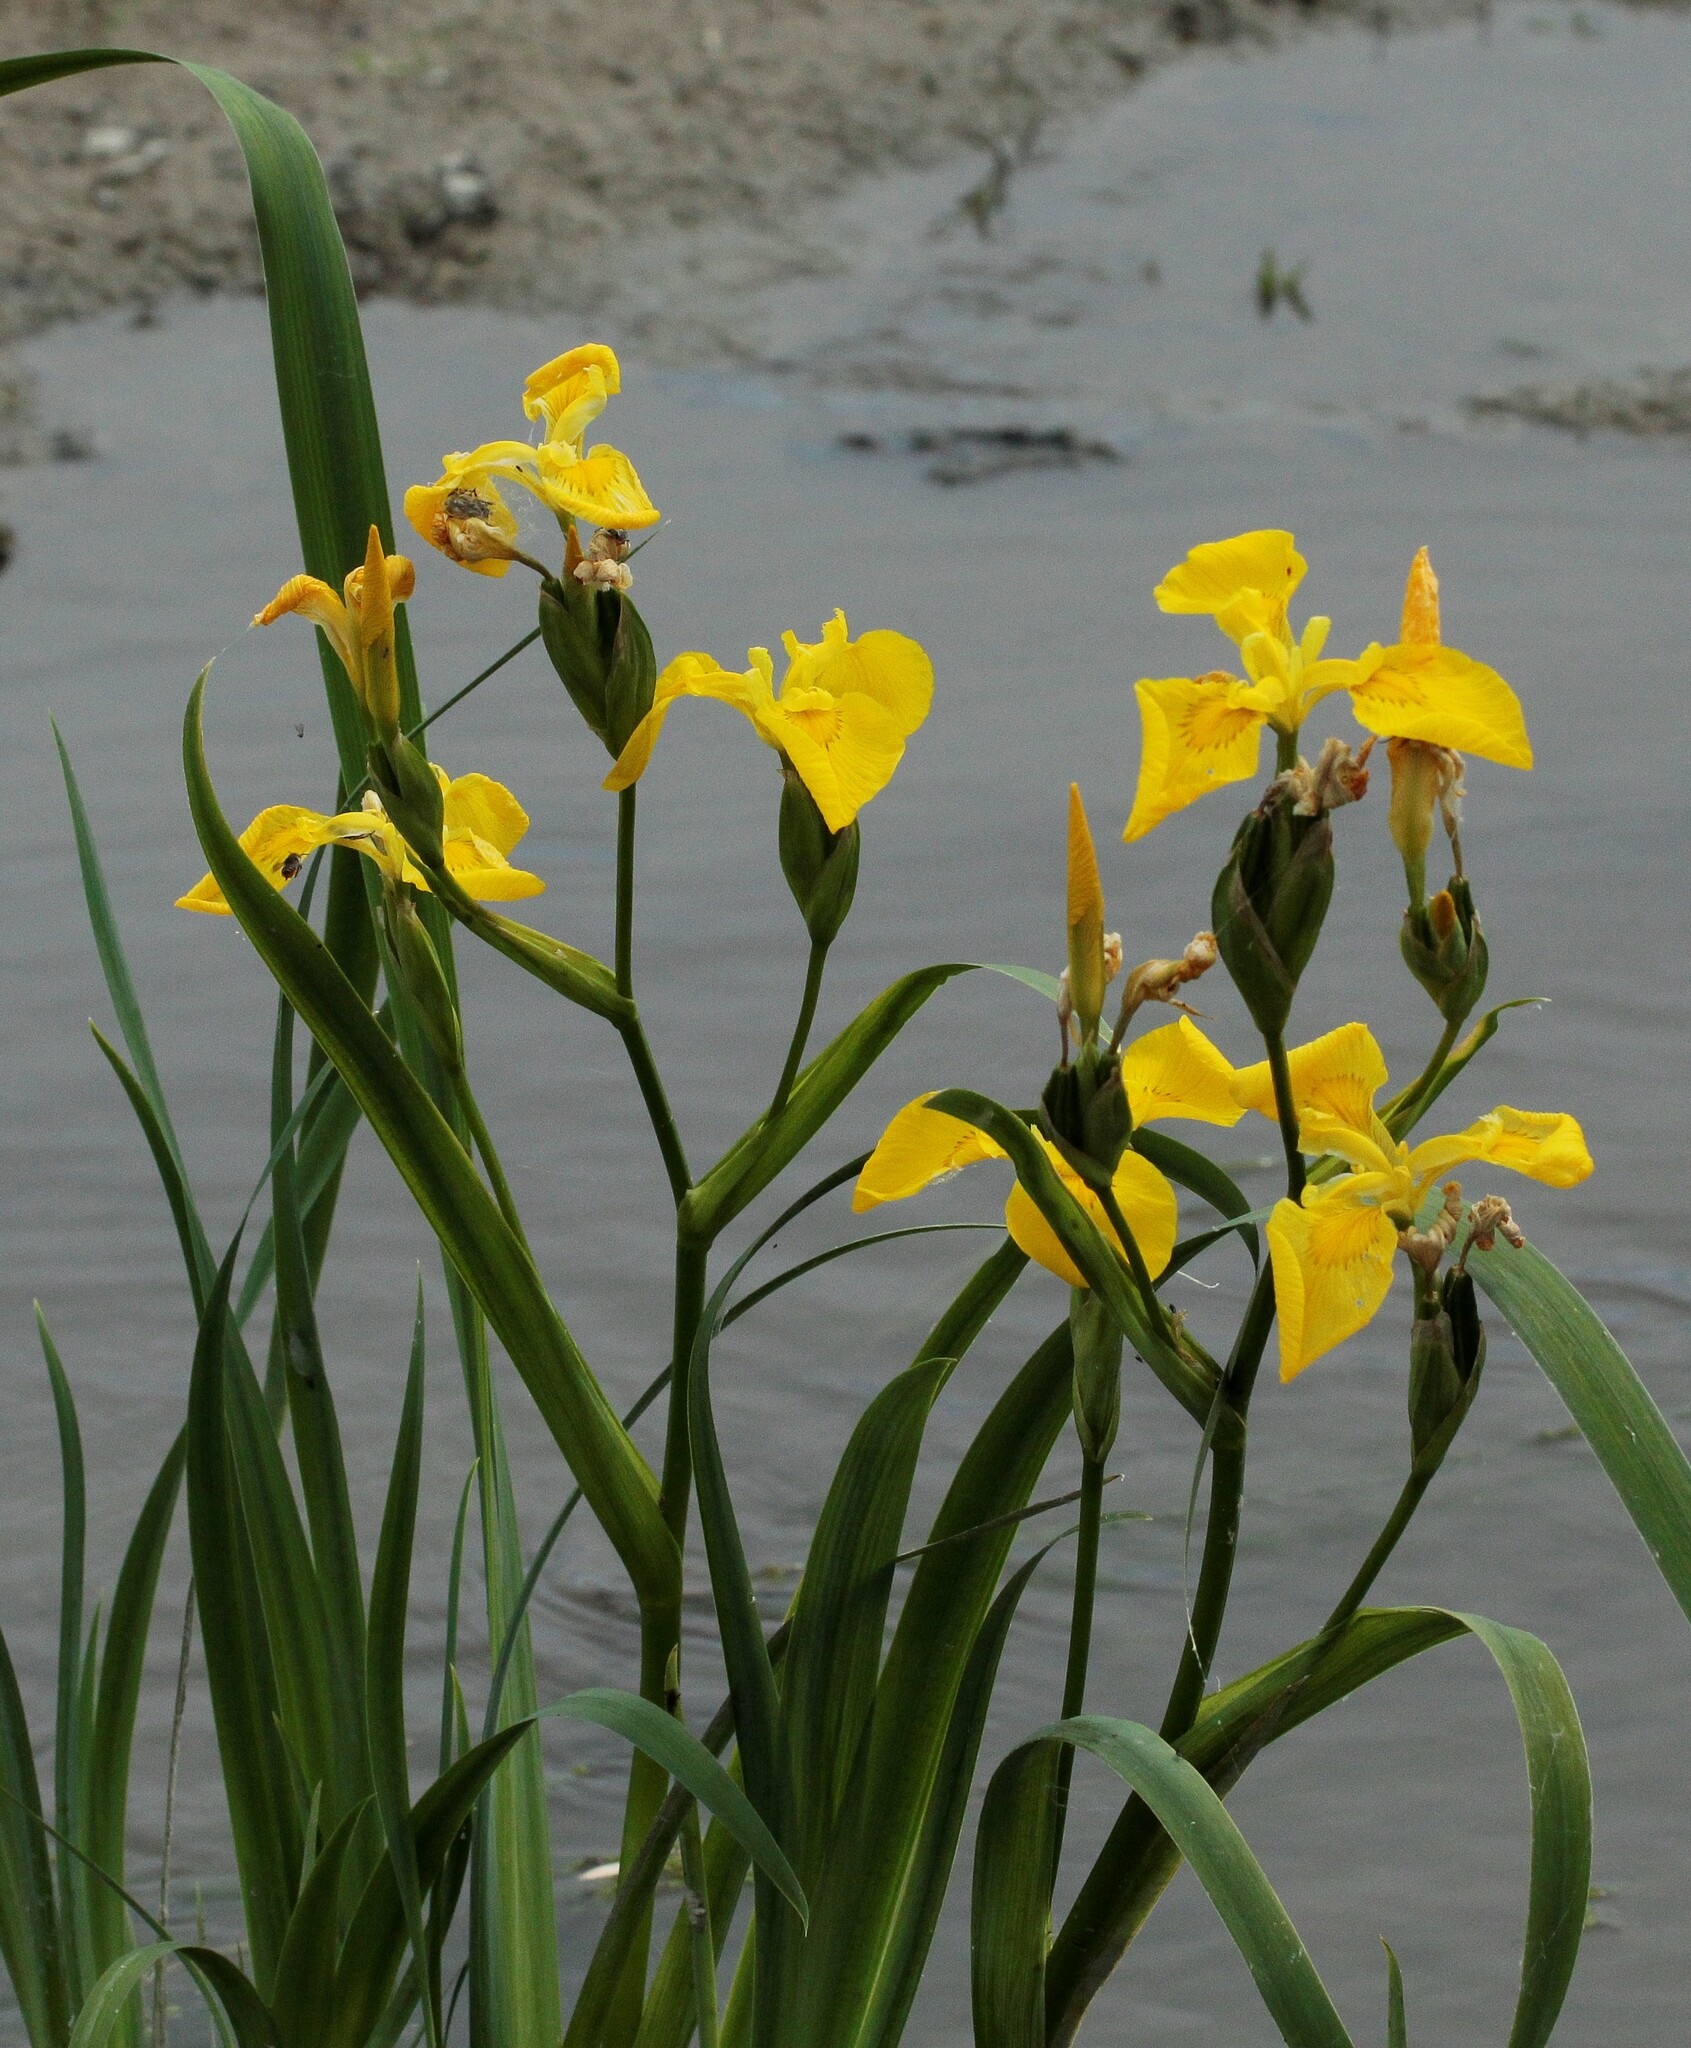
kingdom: Plantae
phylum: Tracheophyta
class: Liliopsida
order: Asparagales
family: Iridaceae
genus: Iris
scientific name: Iris pseudacorus
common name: Yellow flag
